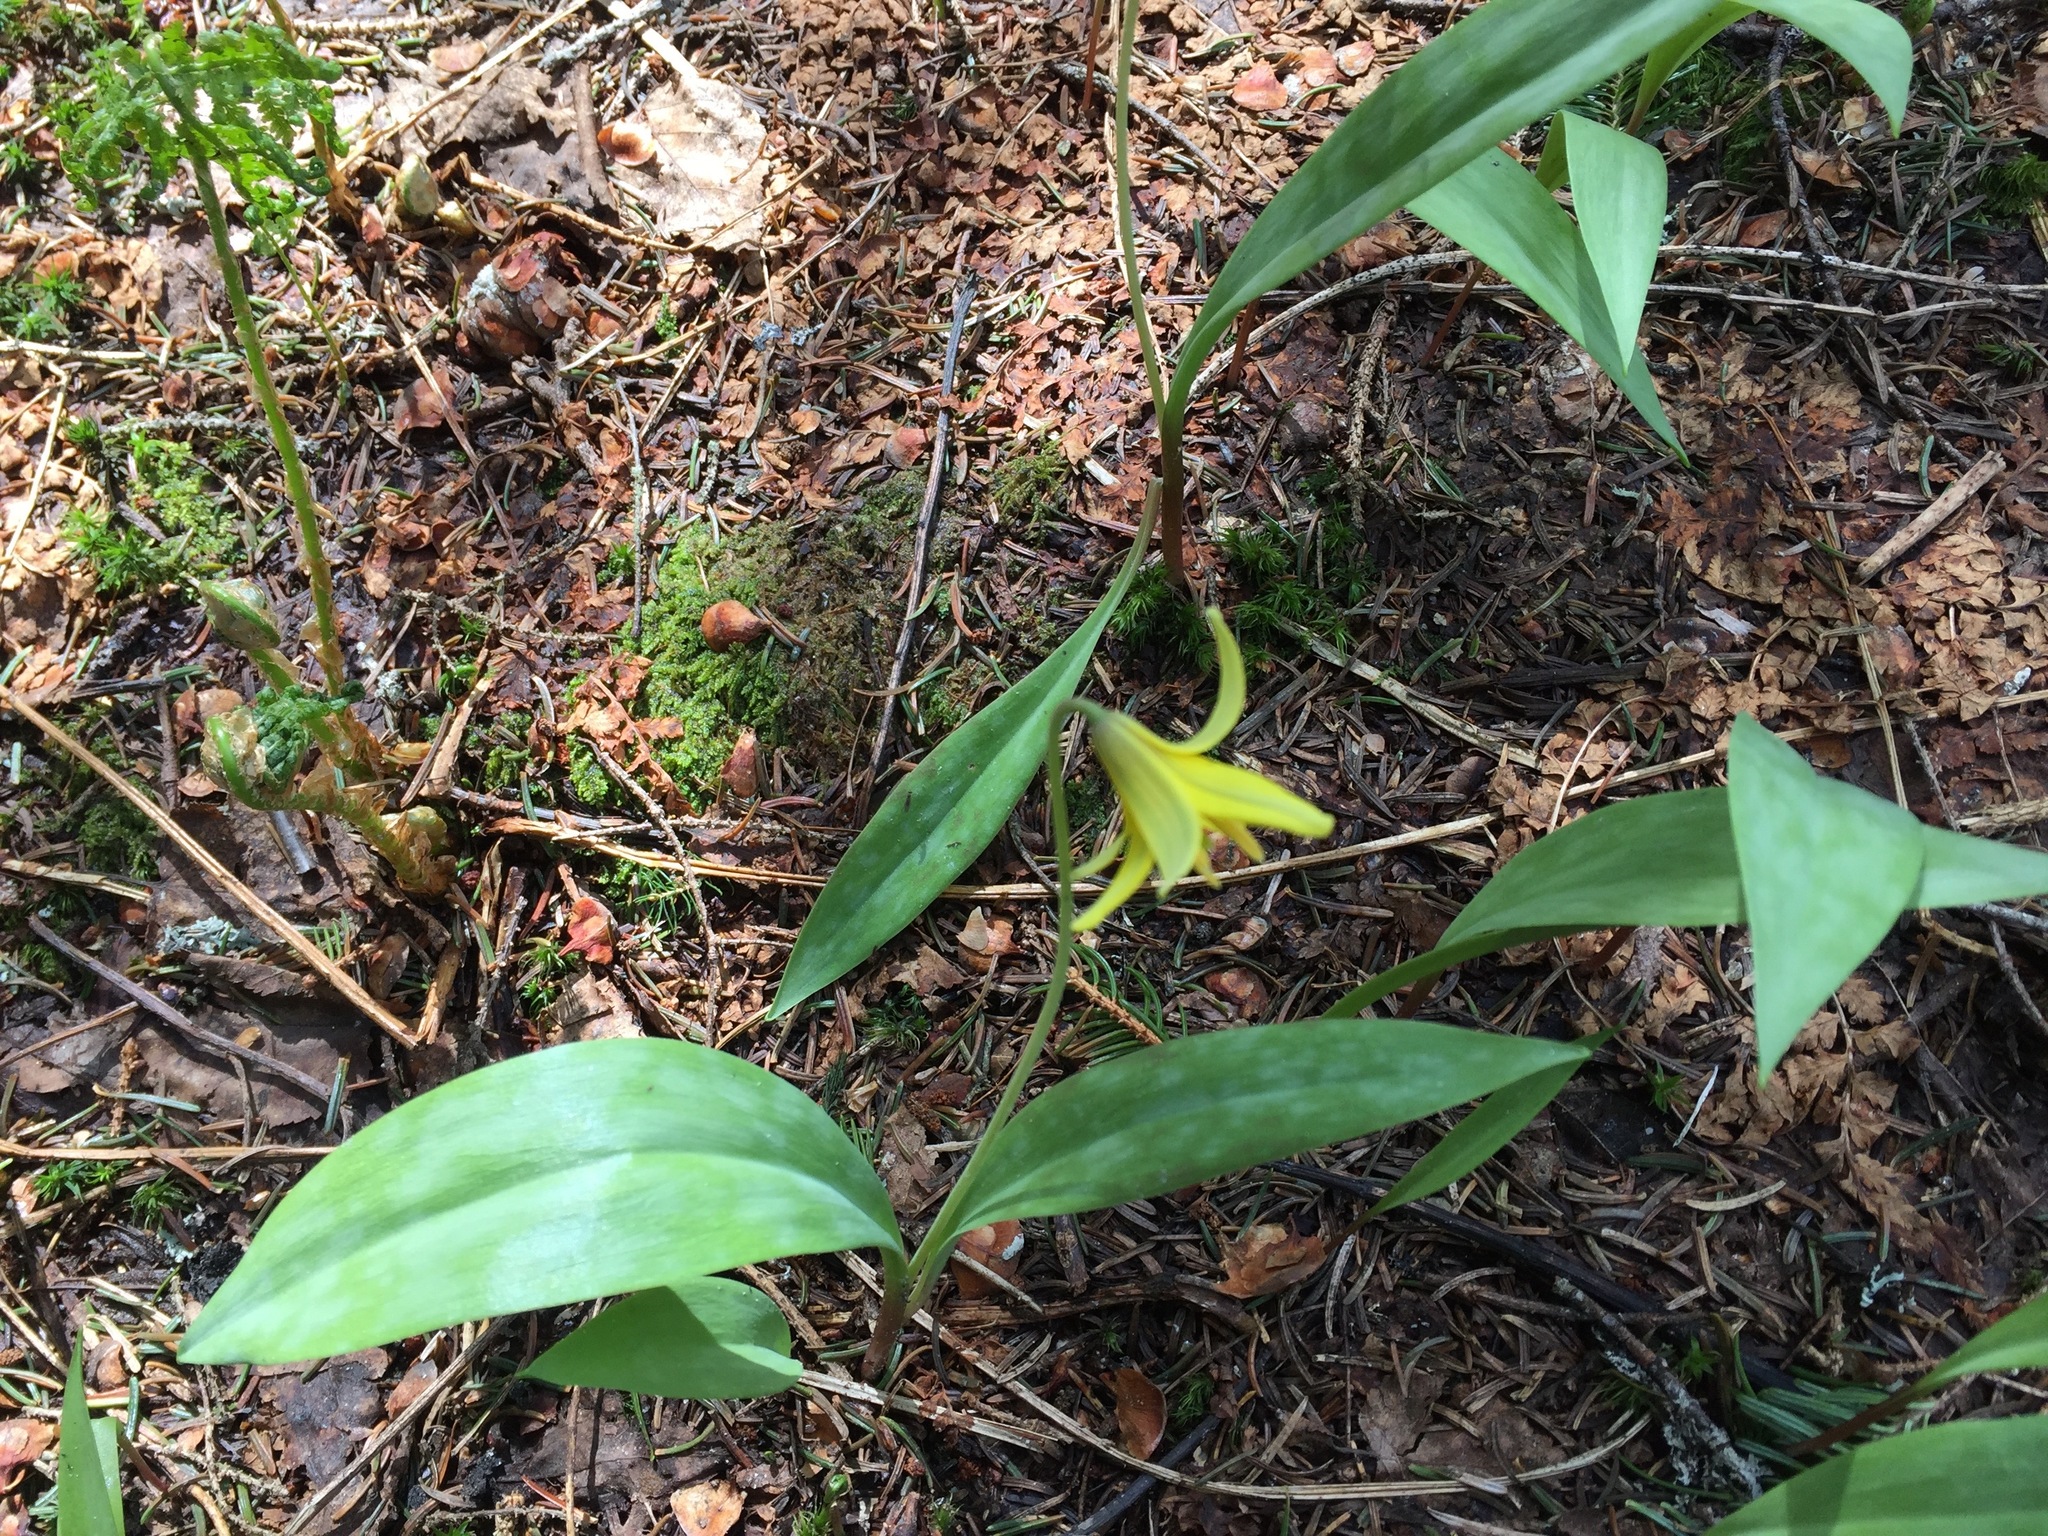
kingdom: Plantae
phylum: Tracheophyta
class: Liliopsida
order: Liliales
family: Liliaceae
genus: Erythronium
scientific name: Erythronium americanum
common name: Yellow adder's-tongue
